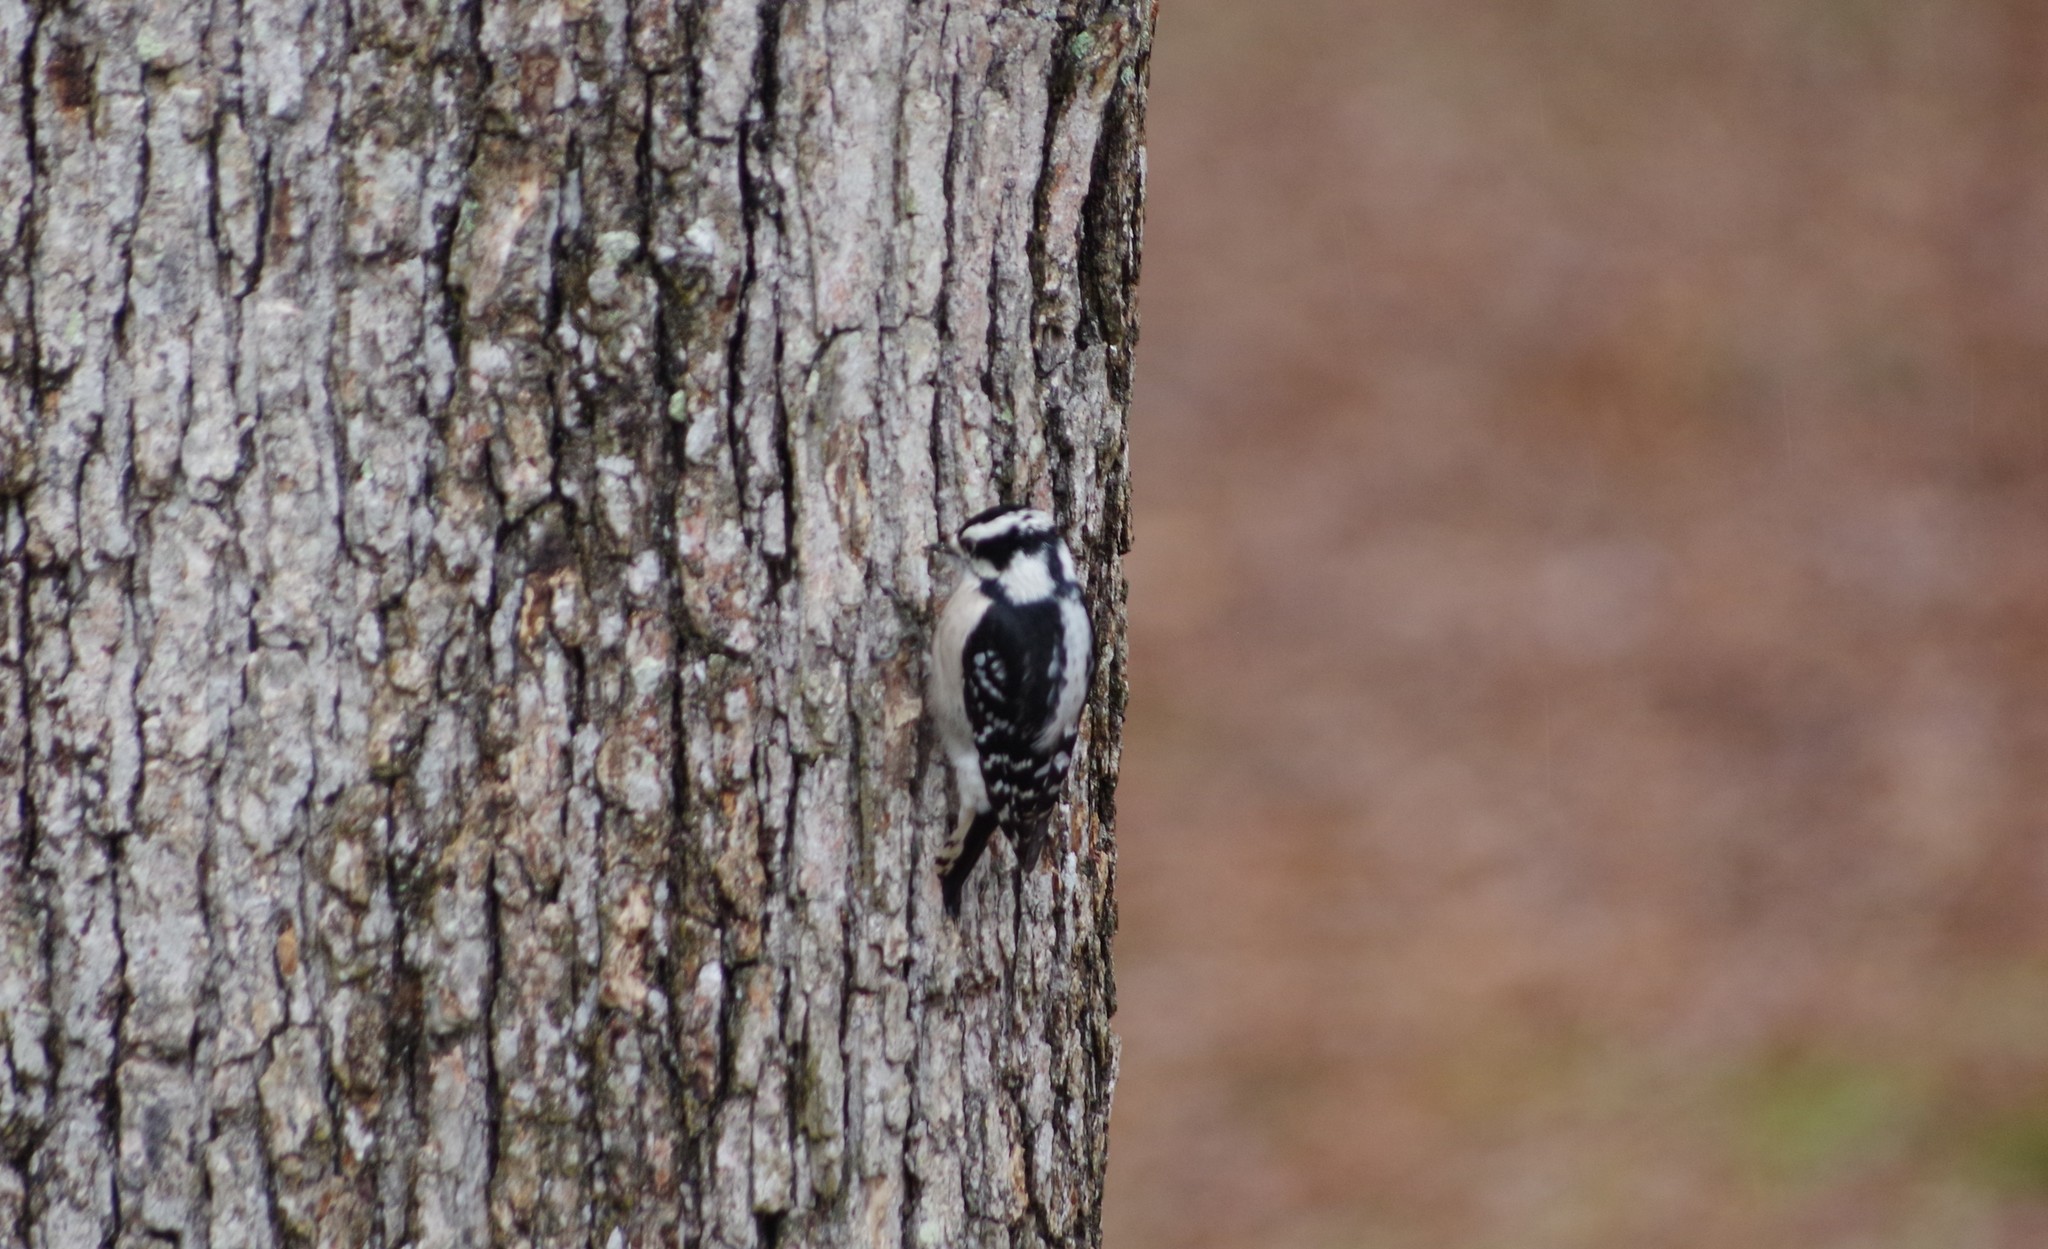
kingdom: Animalia
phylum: Chordata
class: Aves
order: Piciformes
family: Picidae
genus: Dryobates
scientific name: Dryobates pubescens
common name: Downy woodpecker
